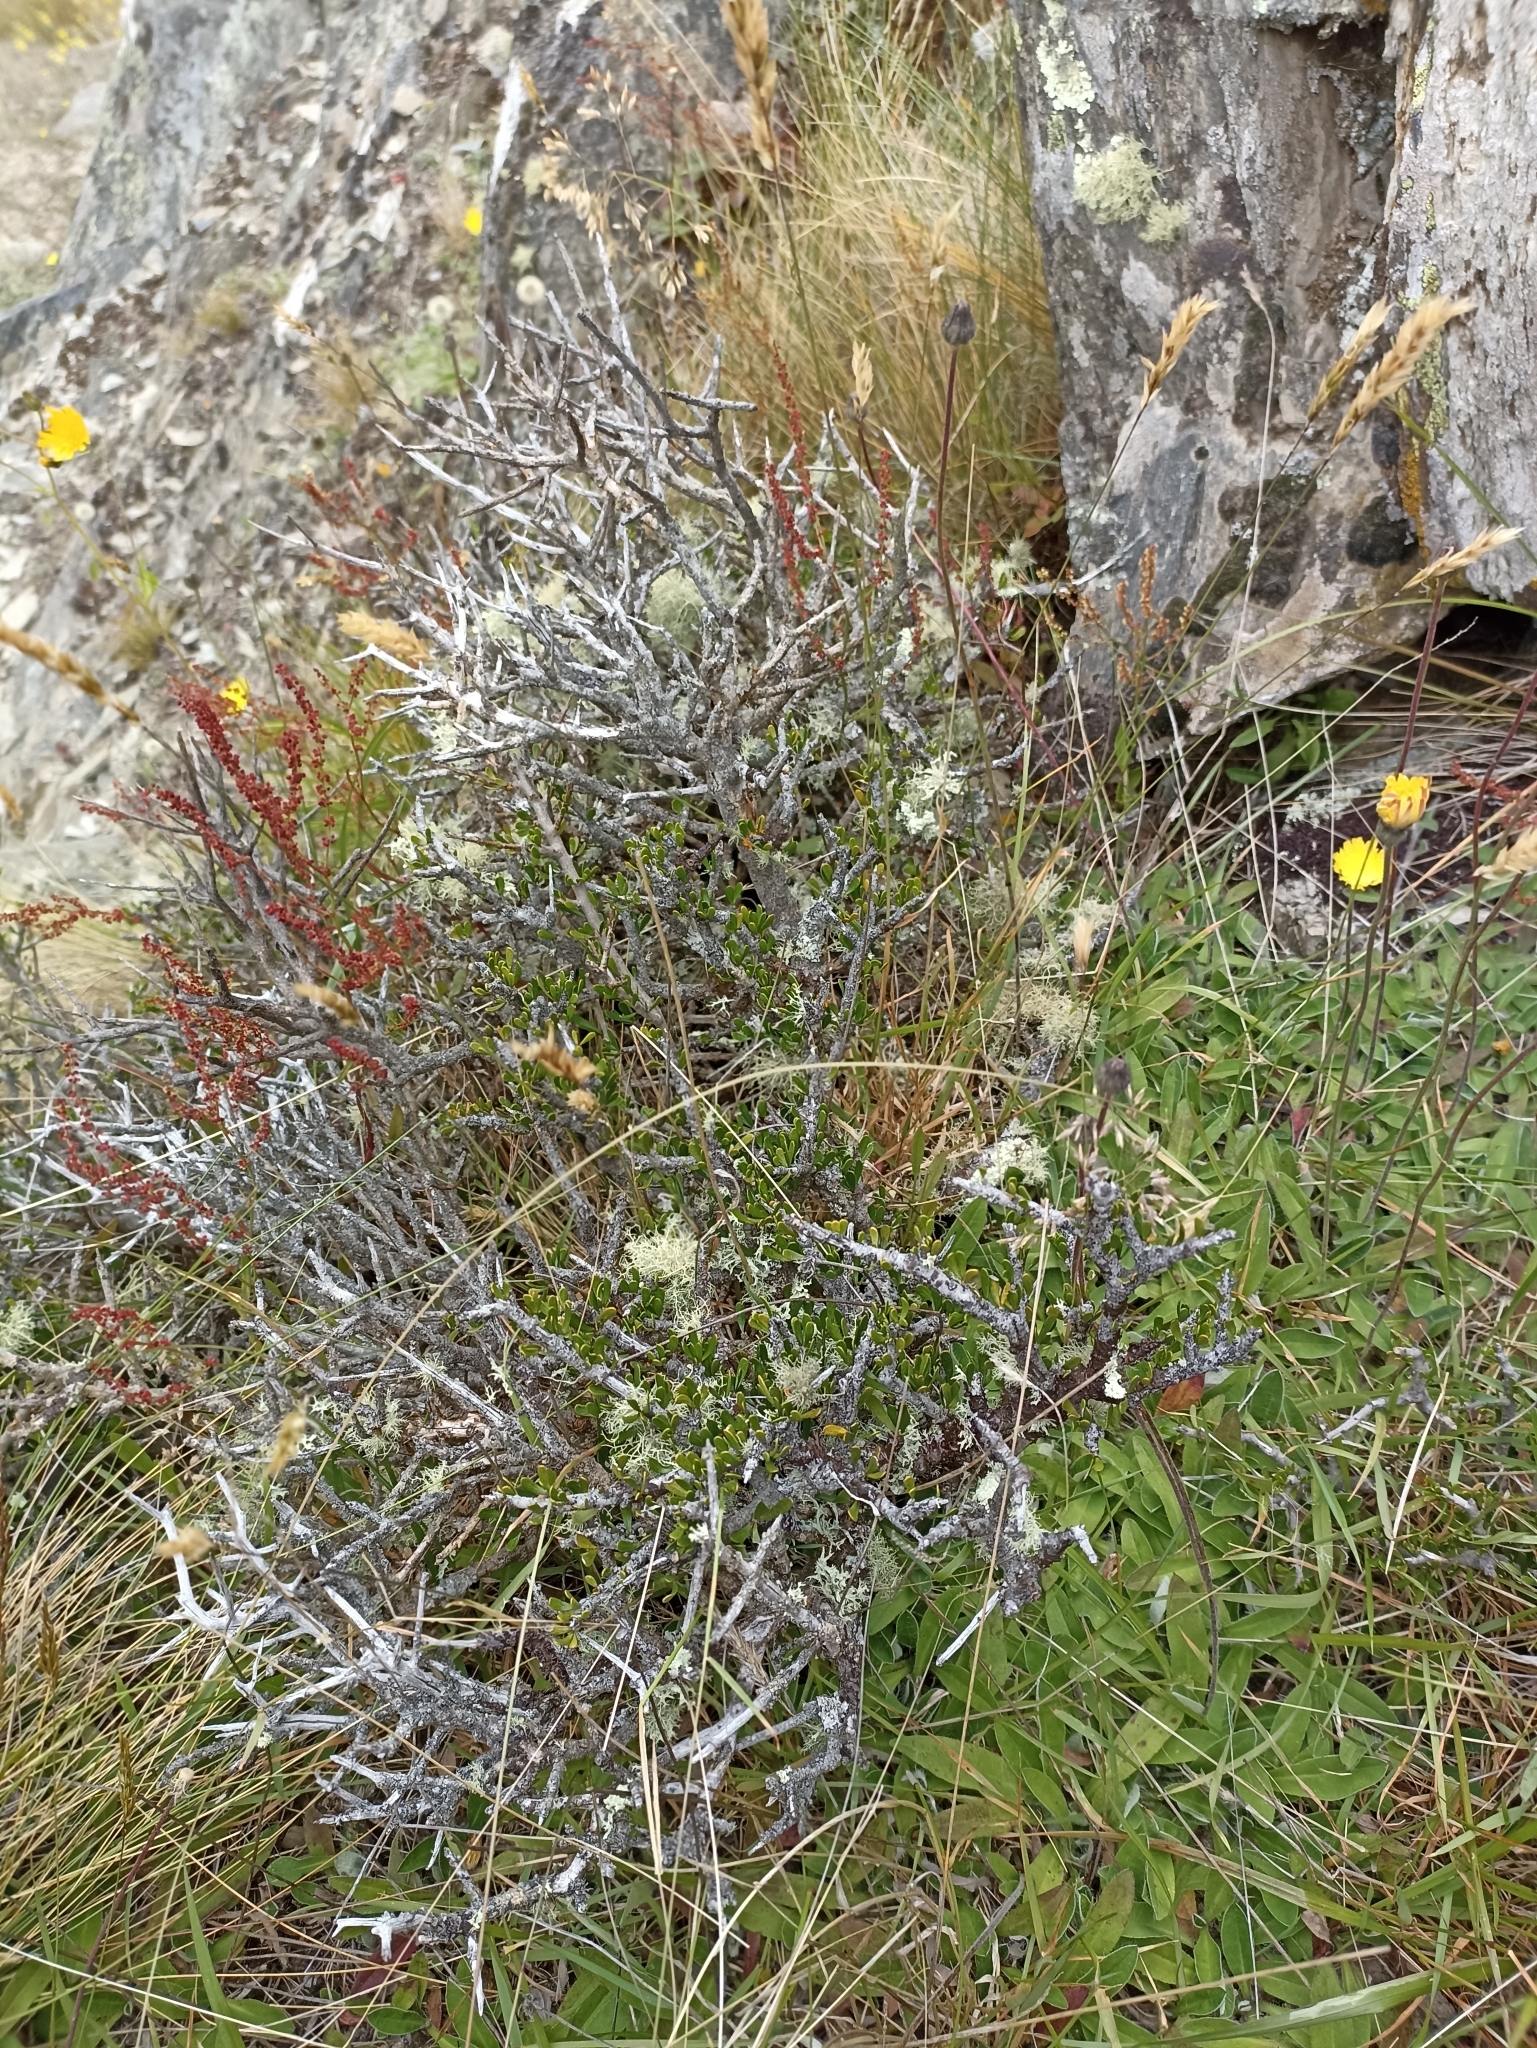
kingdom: Plantae
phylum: Tracheophyta
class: Magnoliopsida
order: Malpighiales
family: Violaceae
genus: Melicytus
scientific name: Melicytus alpinus
